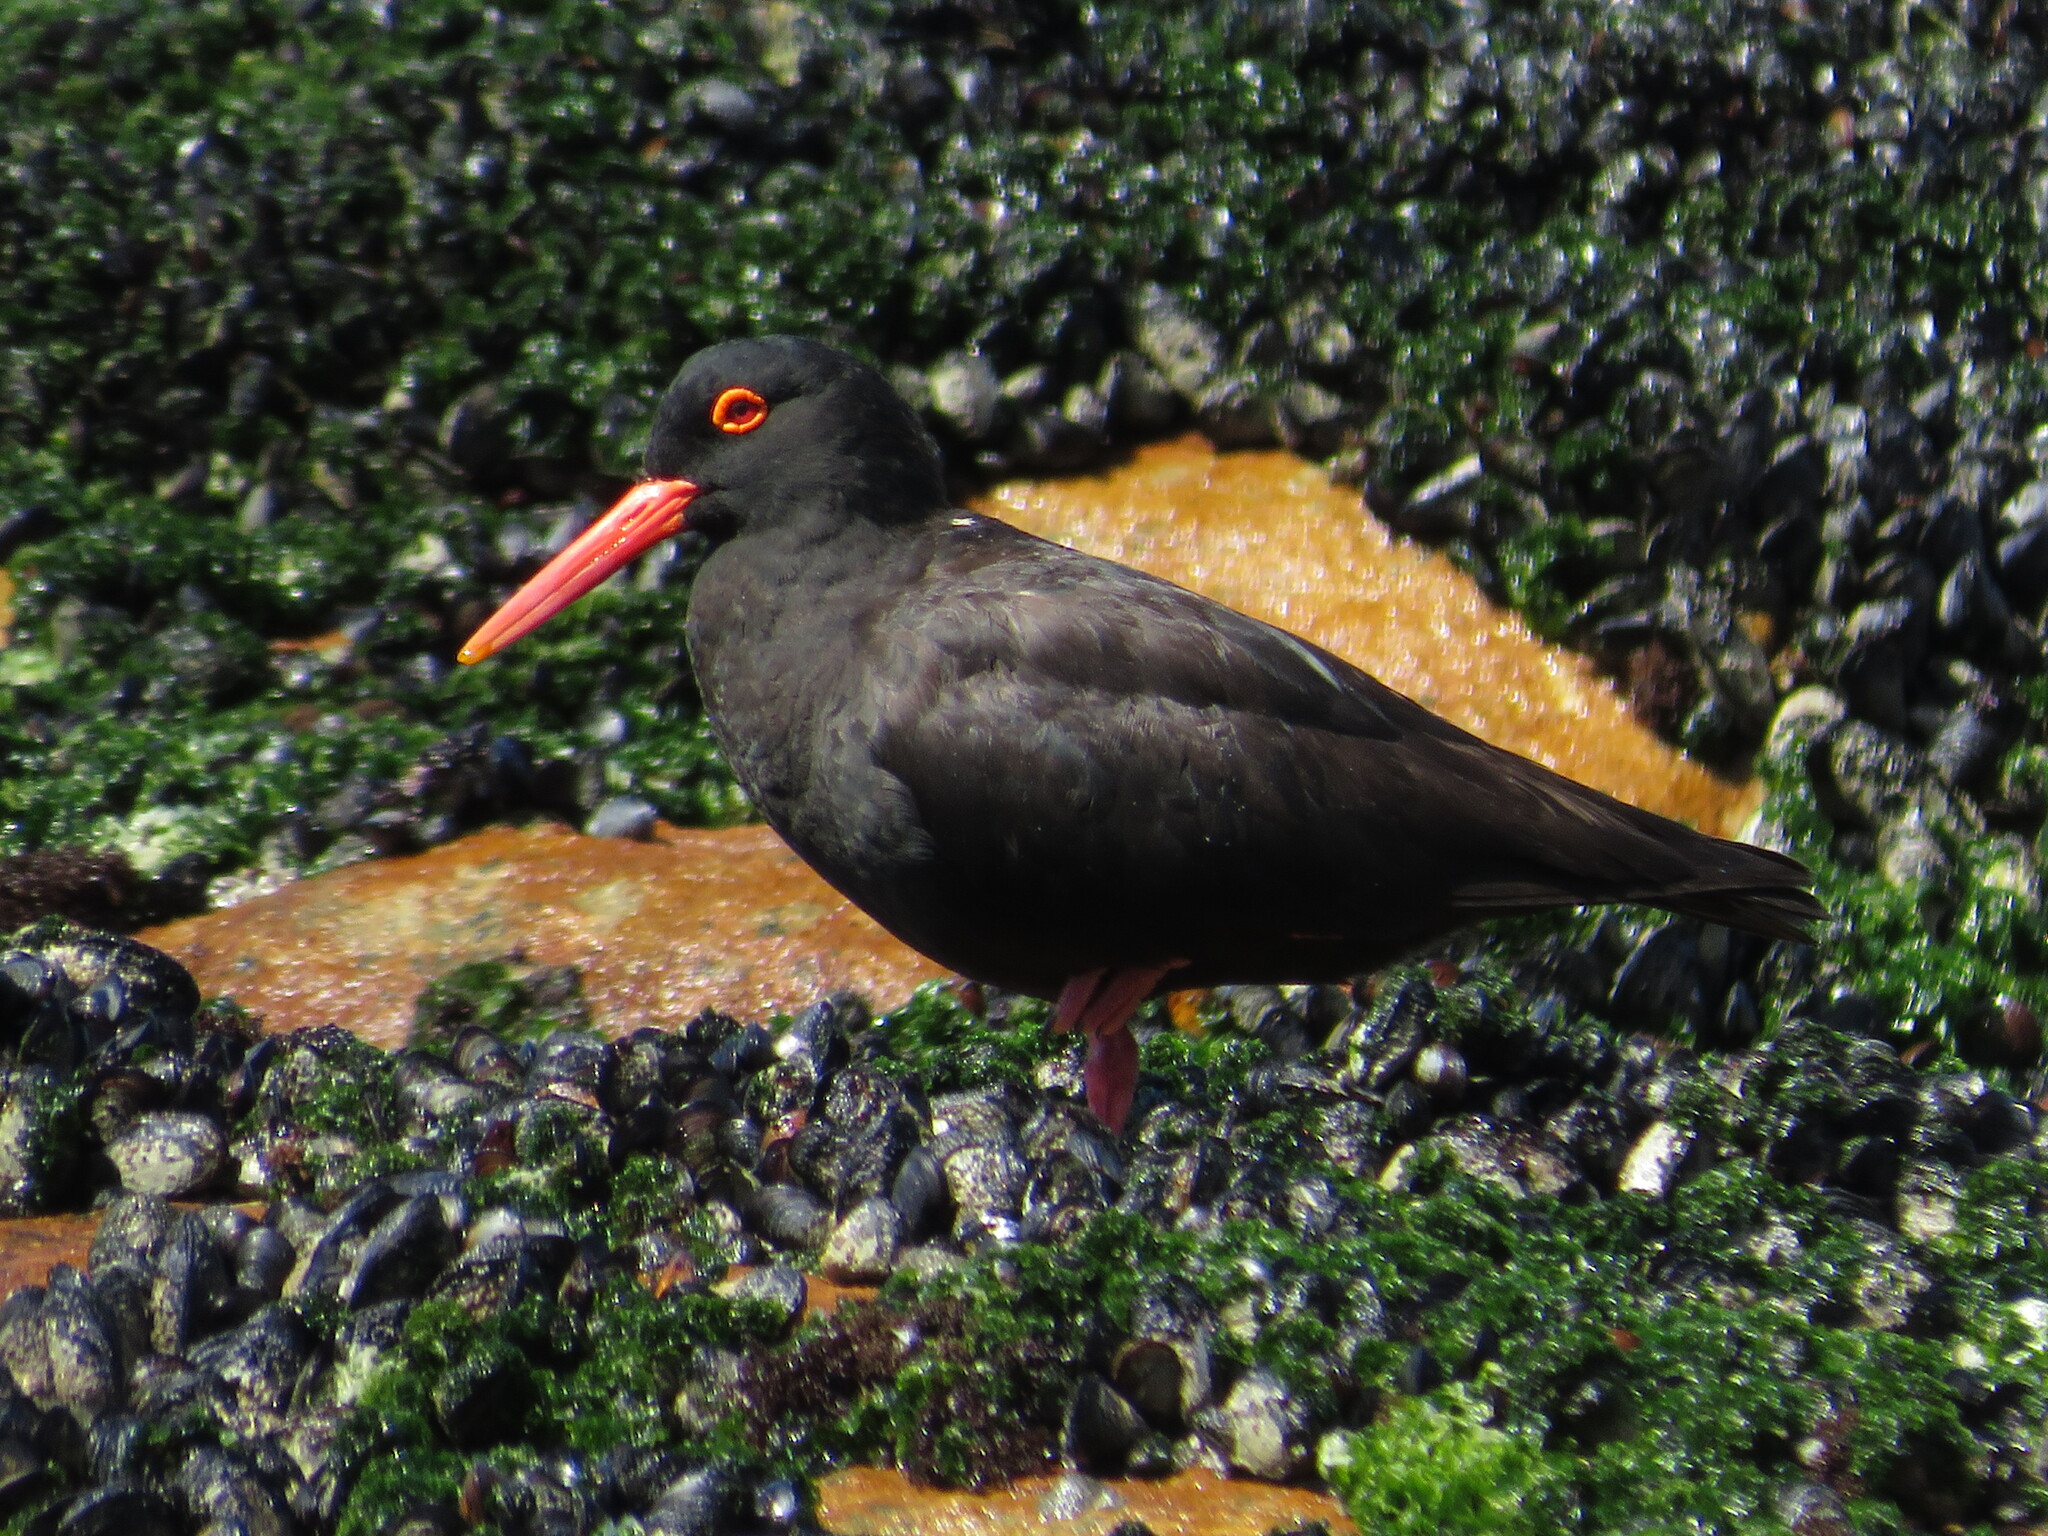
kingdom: Animalia
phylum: Chordata
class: Aves
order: Charadriiformes
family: Haematopodidae
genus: Haematopus
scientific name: Haematopus moquini
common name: African oystercatcher
